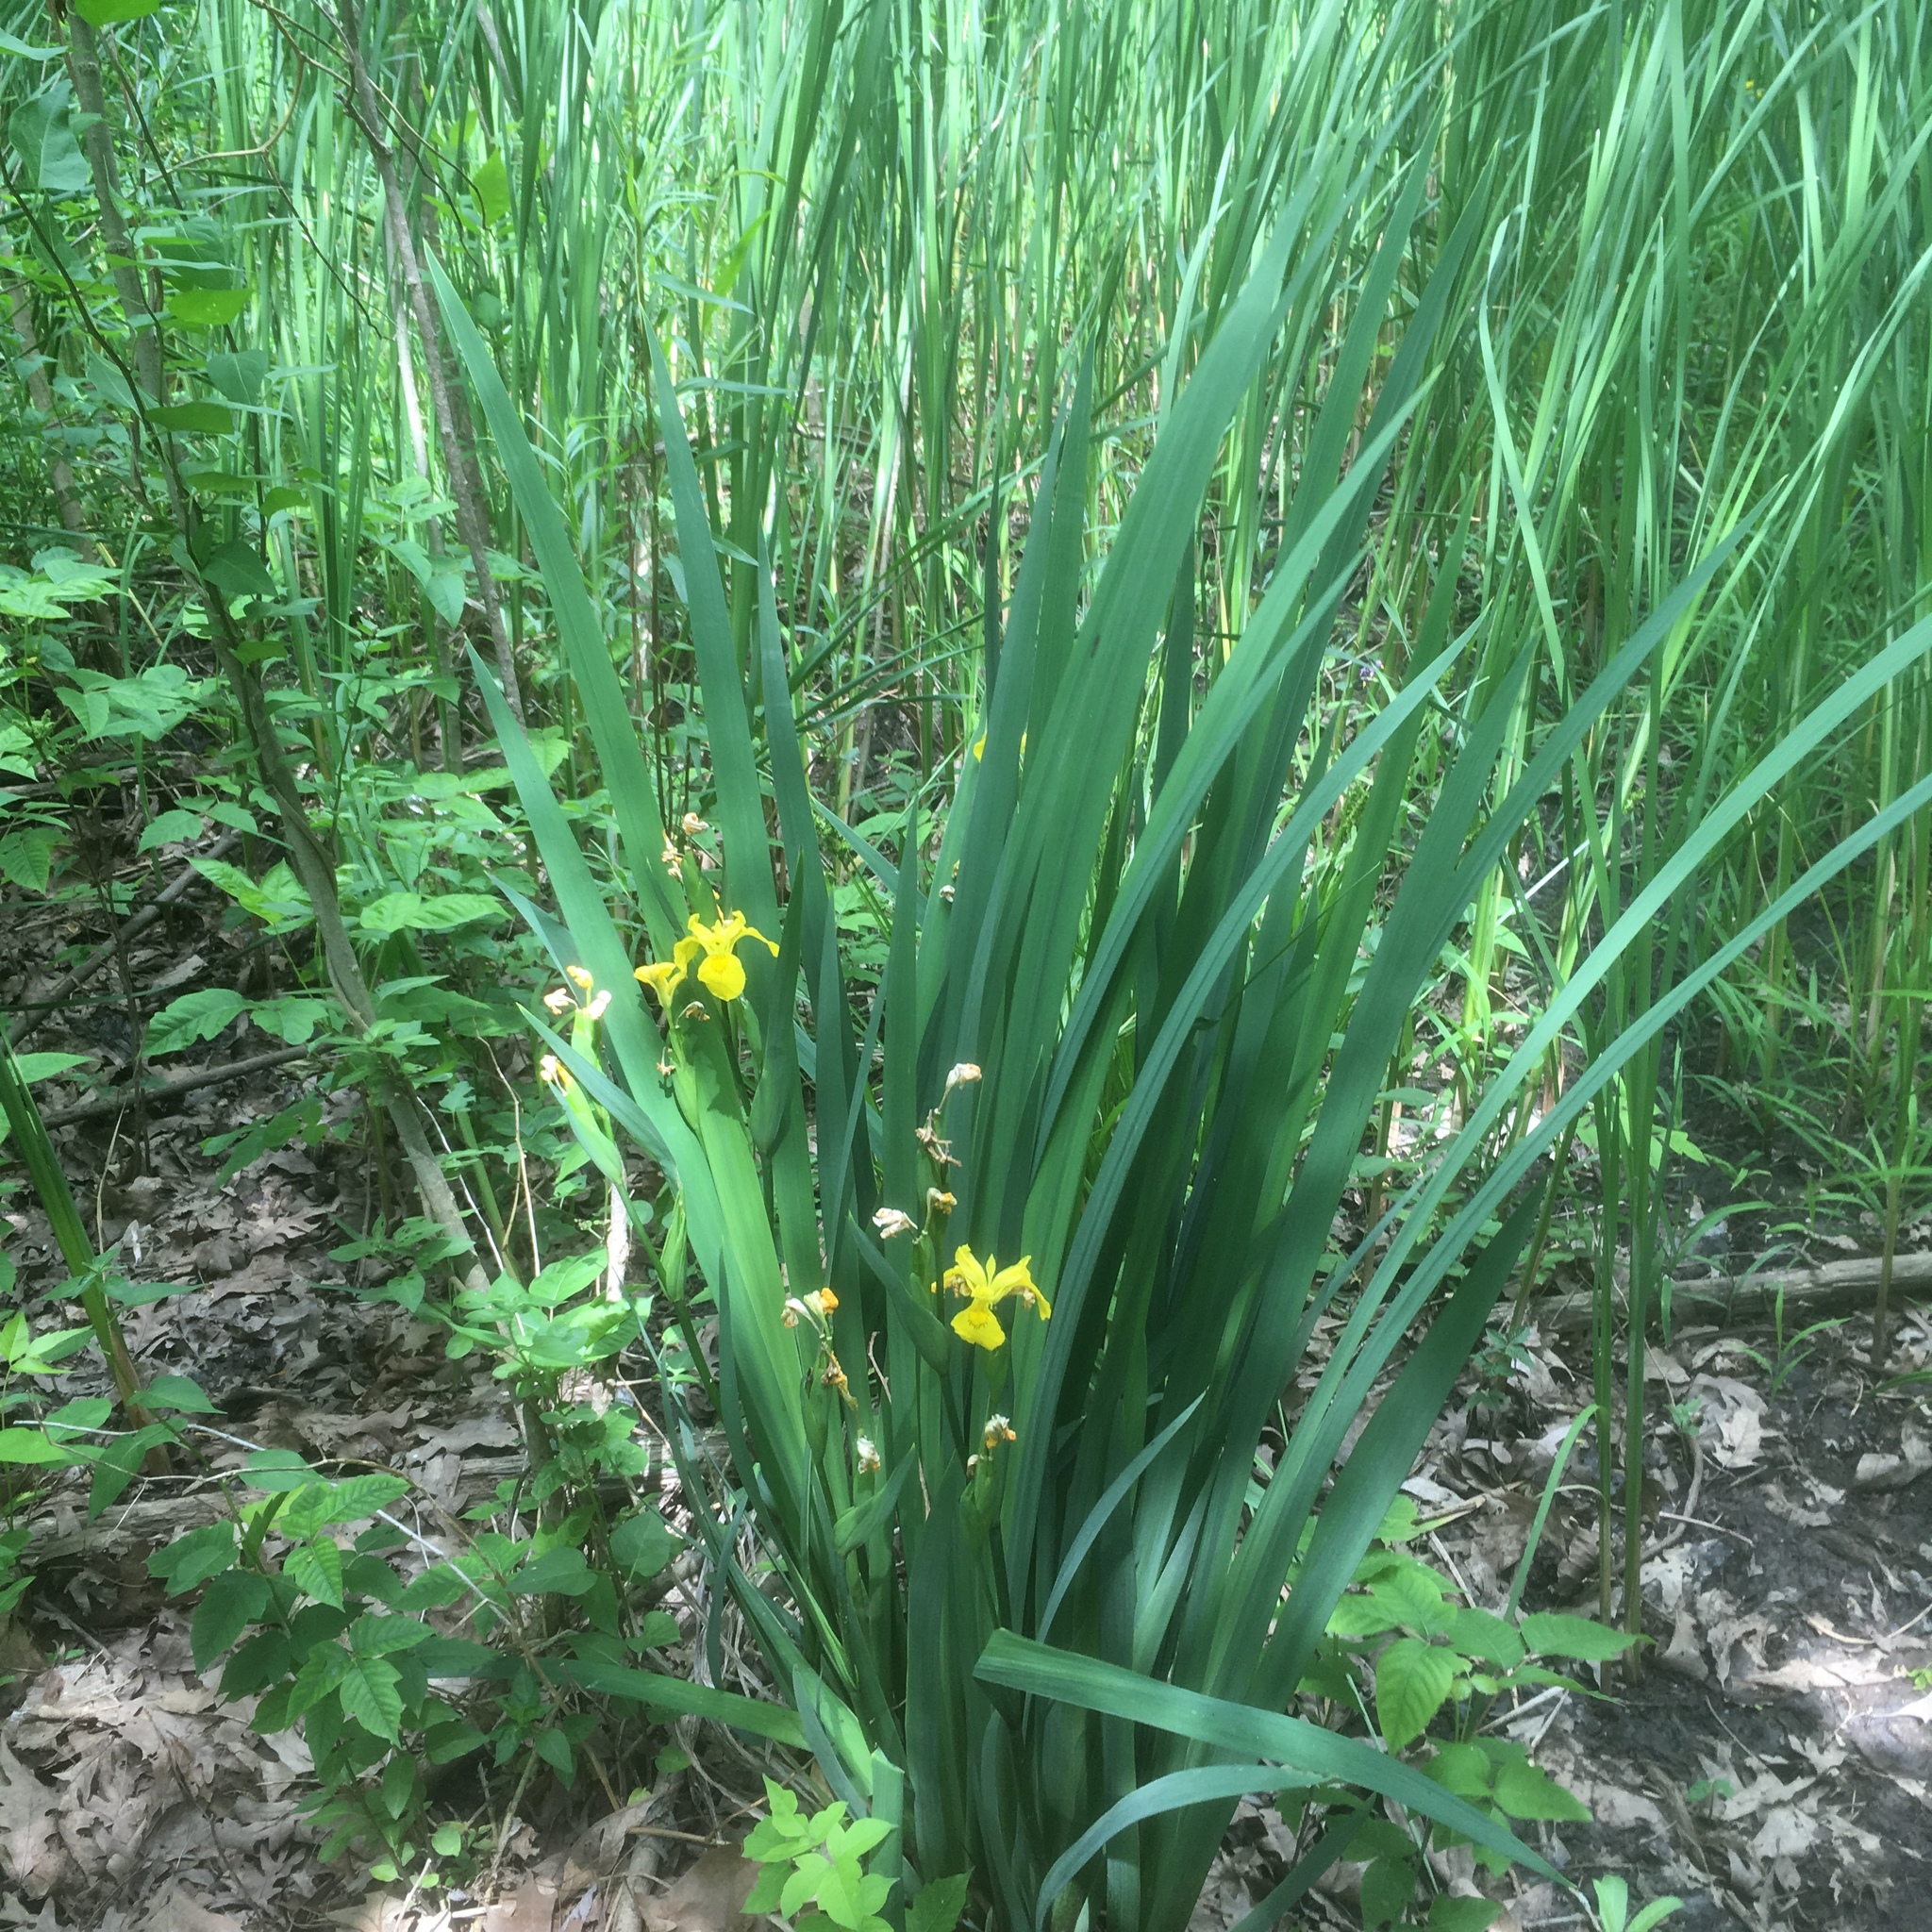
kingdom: Plantae
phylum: Tracheophyta
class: Liliopsida
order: Asparagales
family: Iridaceae
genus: Iris
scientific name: Iris pseudacorus
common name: Yellow flag
